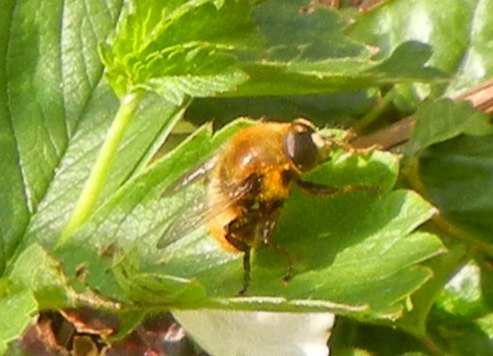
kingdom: Animalia
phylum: Arthropoda
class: Insecta
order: Diptera
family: Syrphidae
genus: Merodon
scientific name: Merodon equestris
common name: Greater bulb-fly
